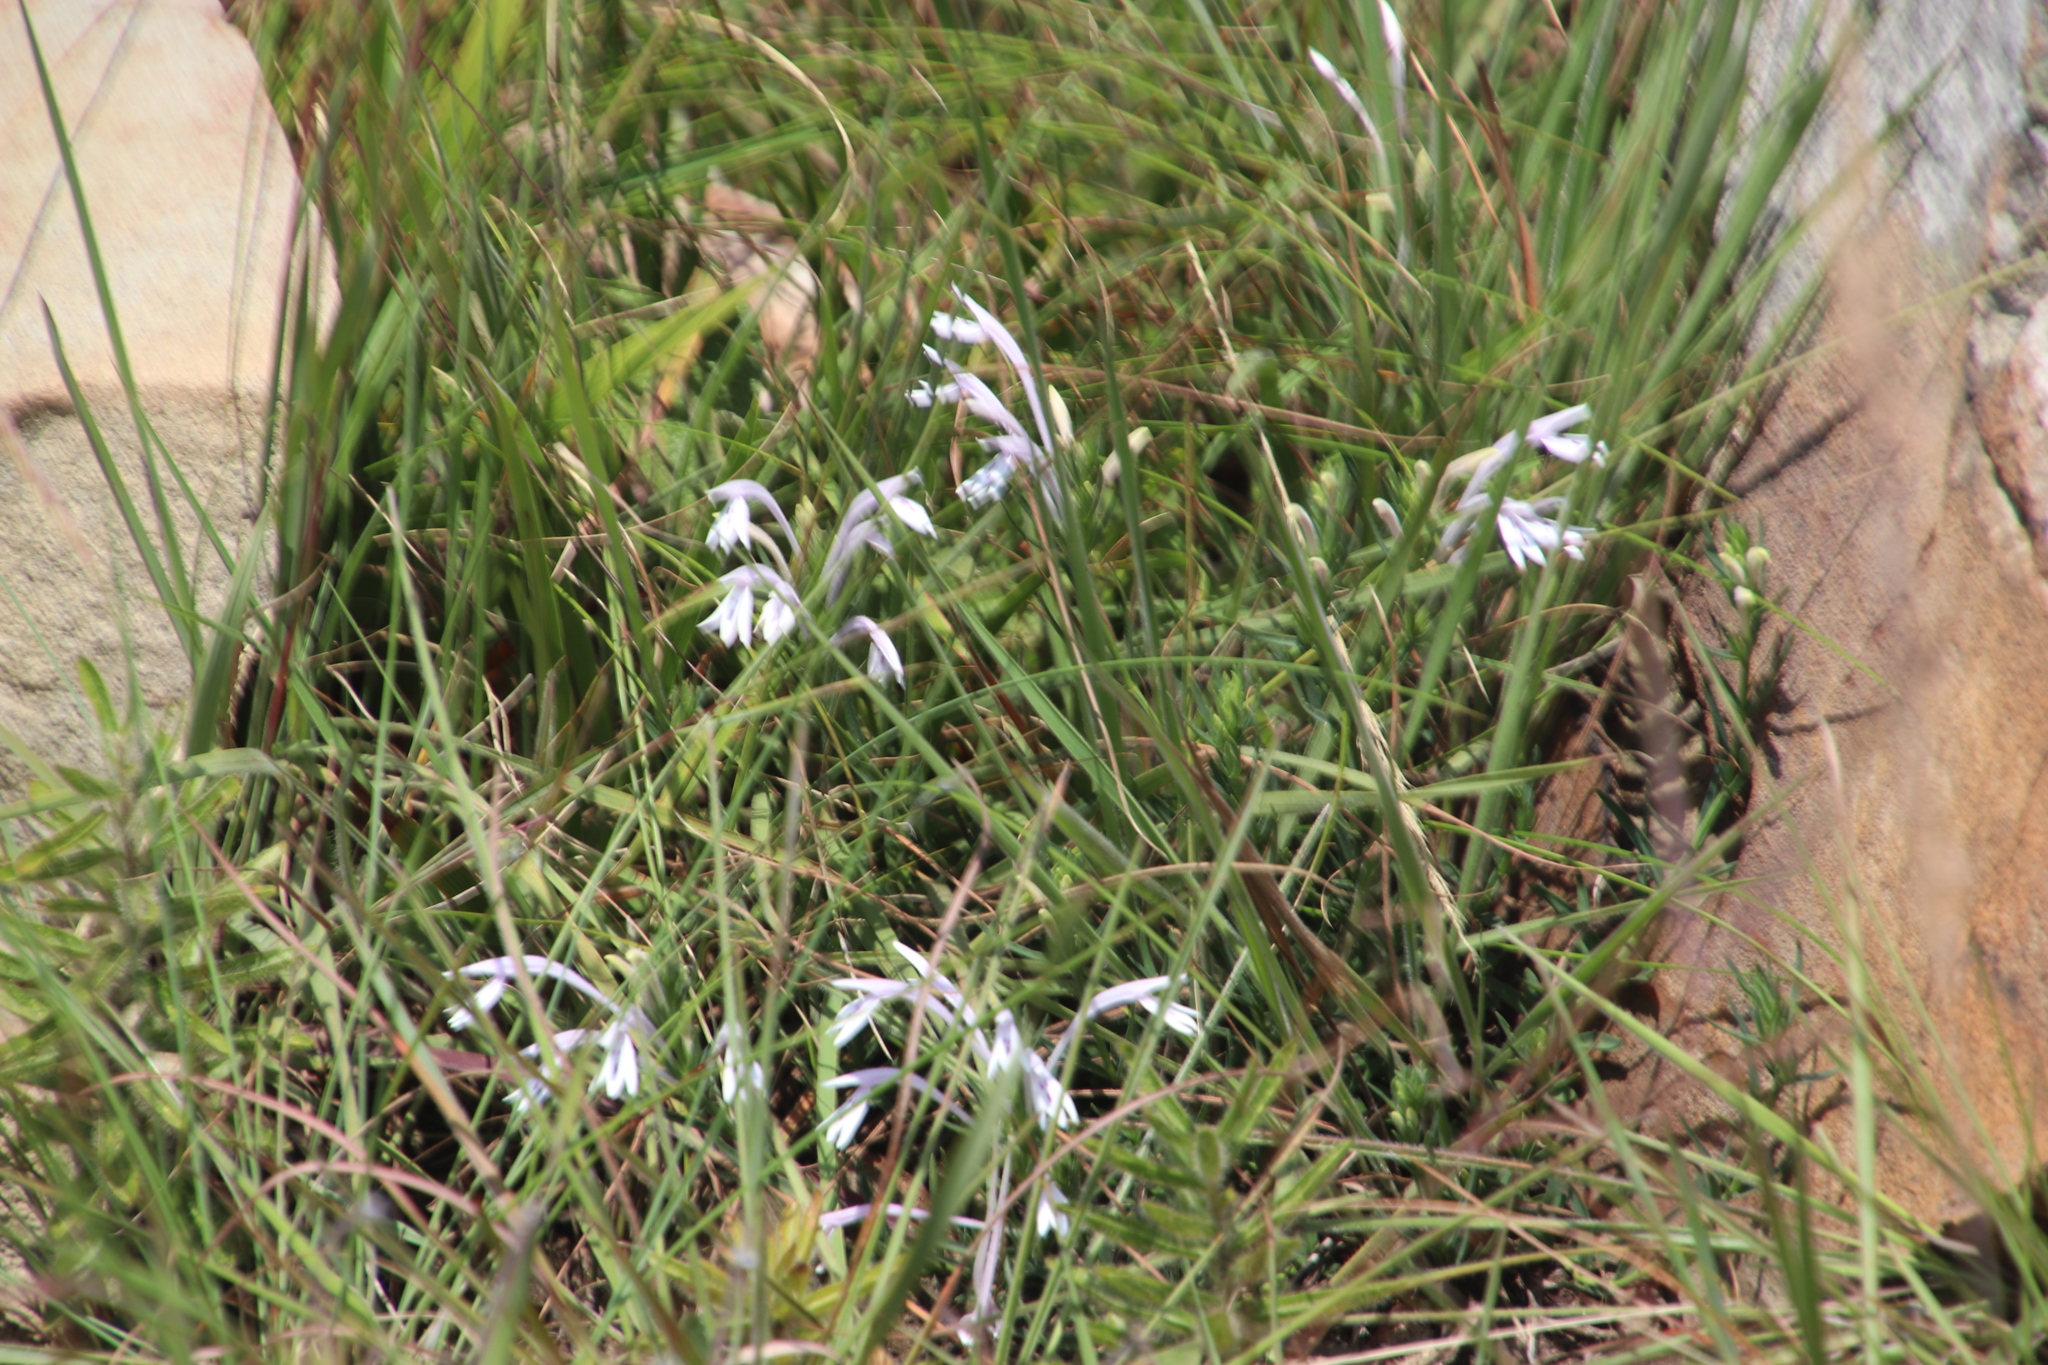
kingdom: Plantae
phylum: Tracheophyta
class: Magnoliopsida
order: Lamiales
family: Acanthaceae
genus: Justicia
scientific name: Justicia linifolia
